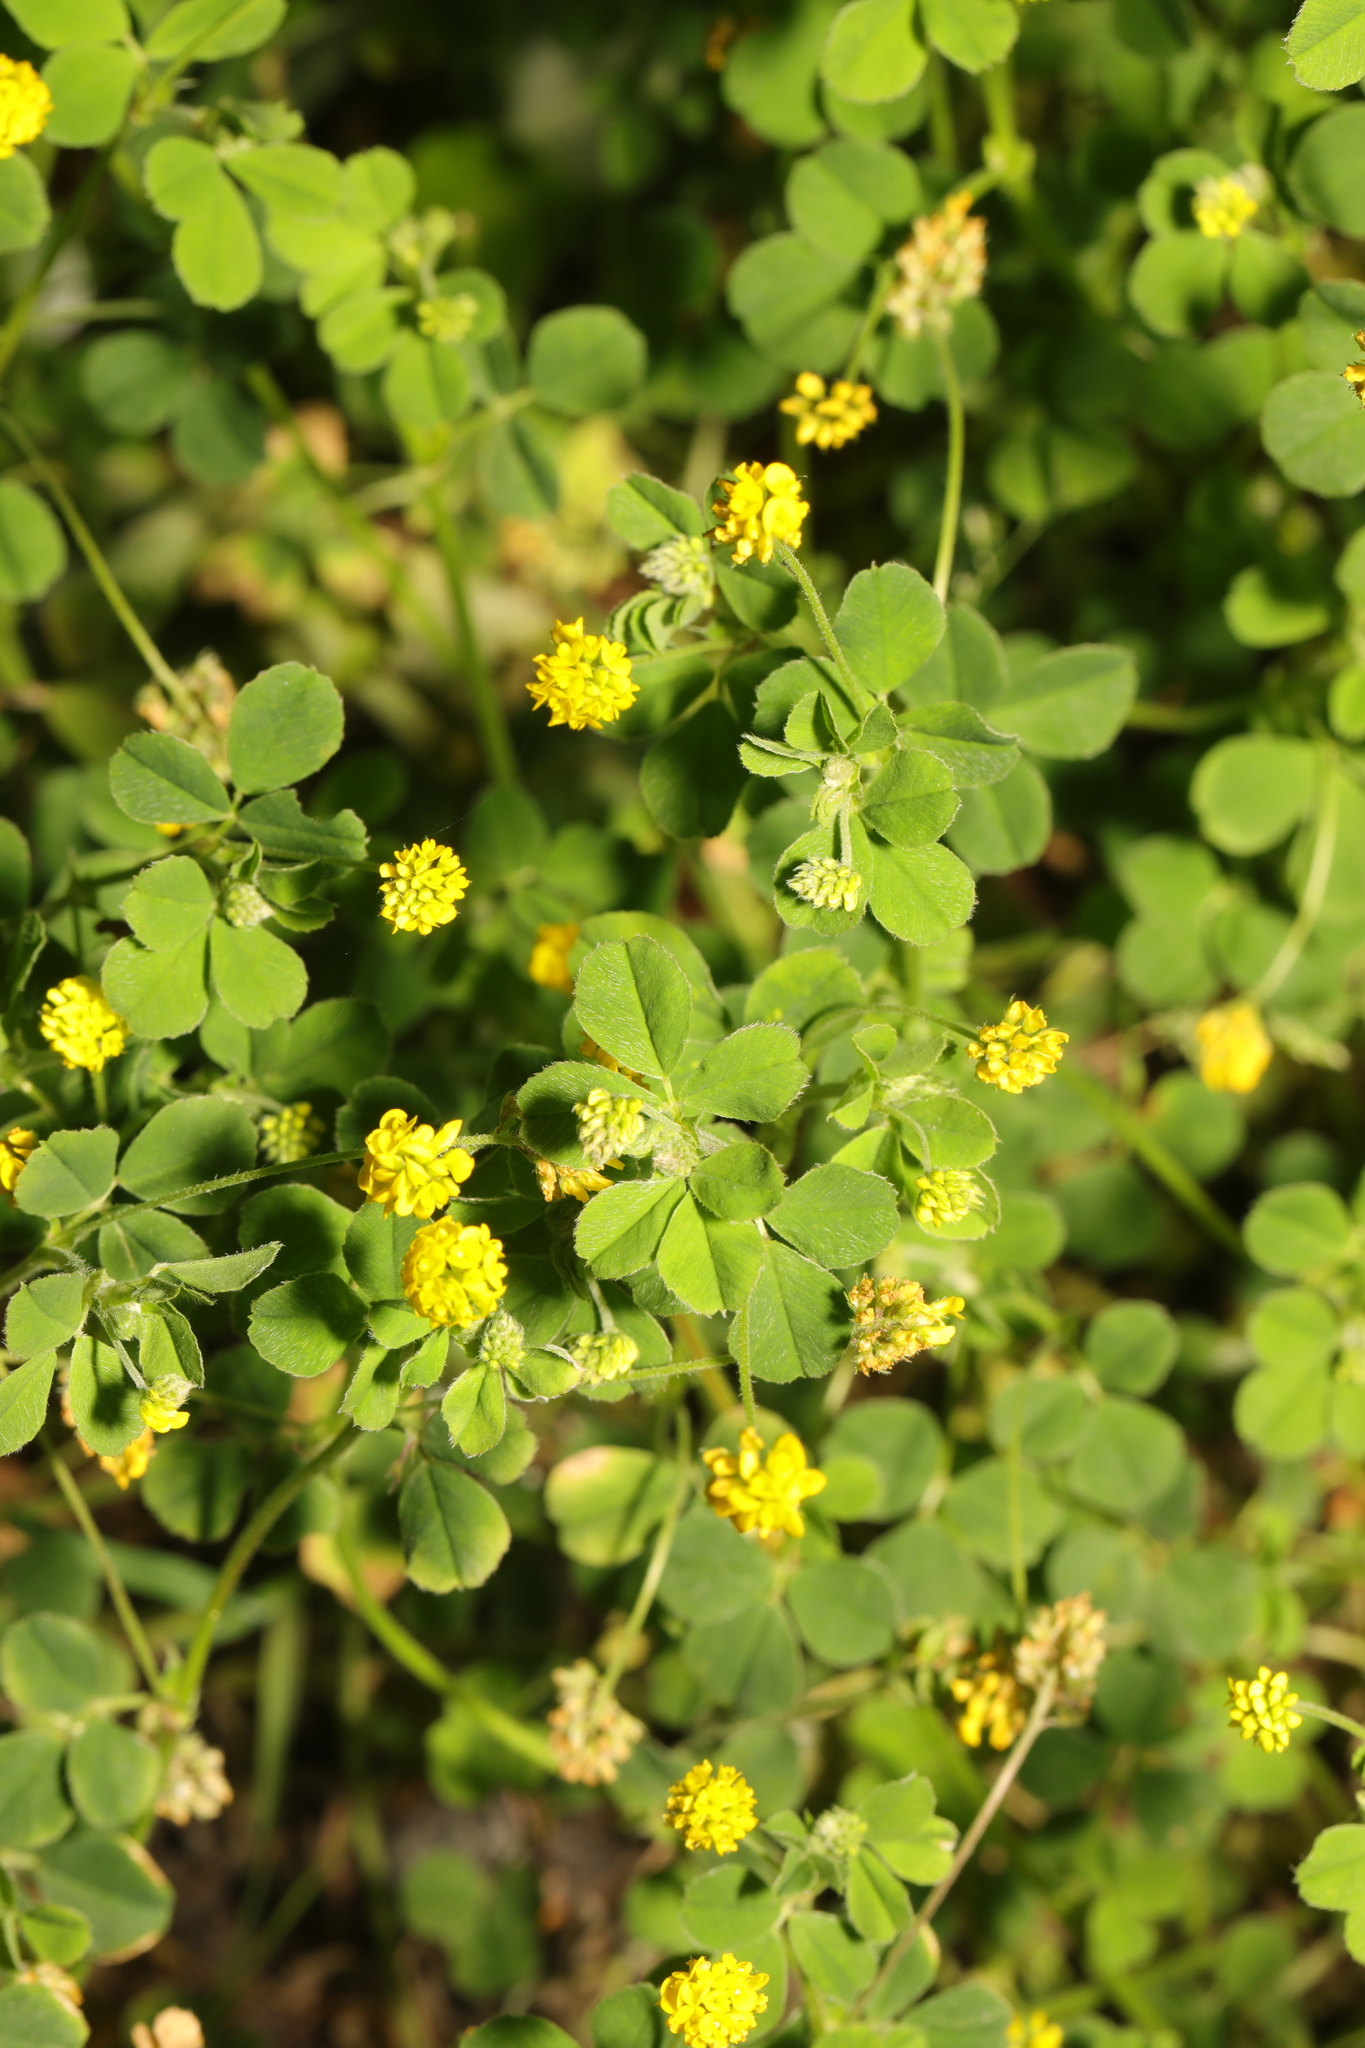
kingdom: Plantae
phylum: Tracheophyta
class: Magnoliopsida
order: Fabales
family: Fabaceae
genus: Medicago
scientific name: Medicago lupulina
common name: Black medick
